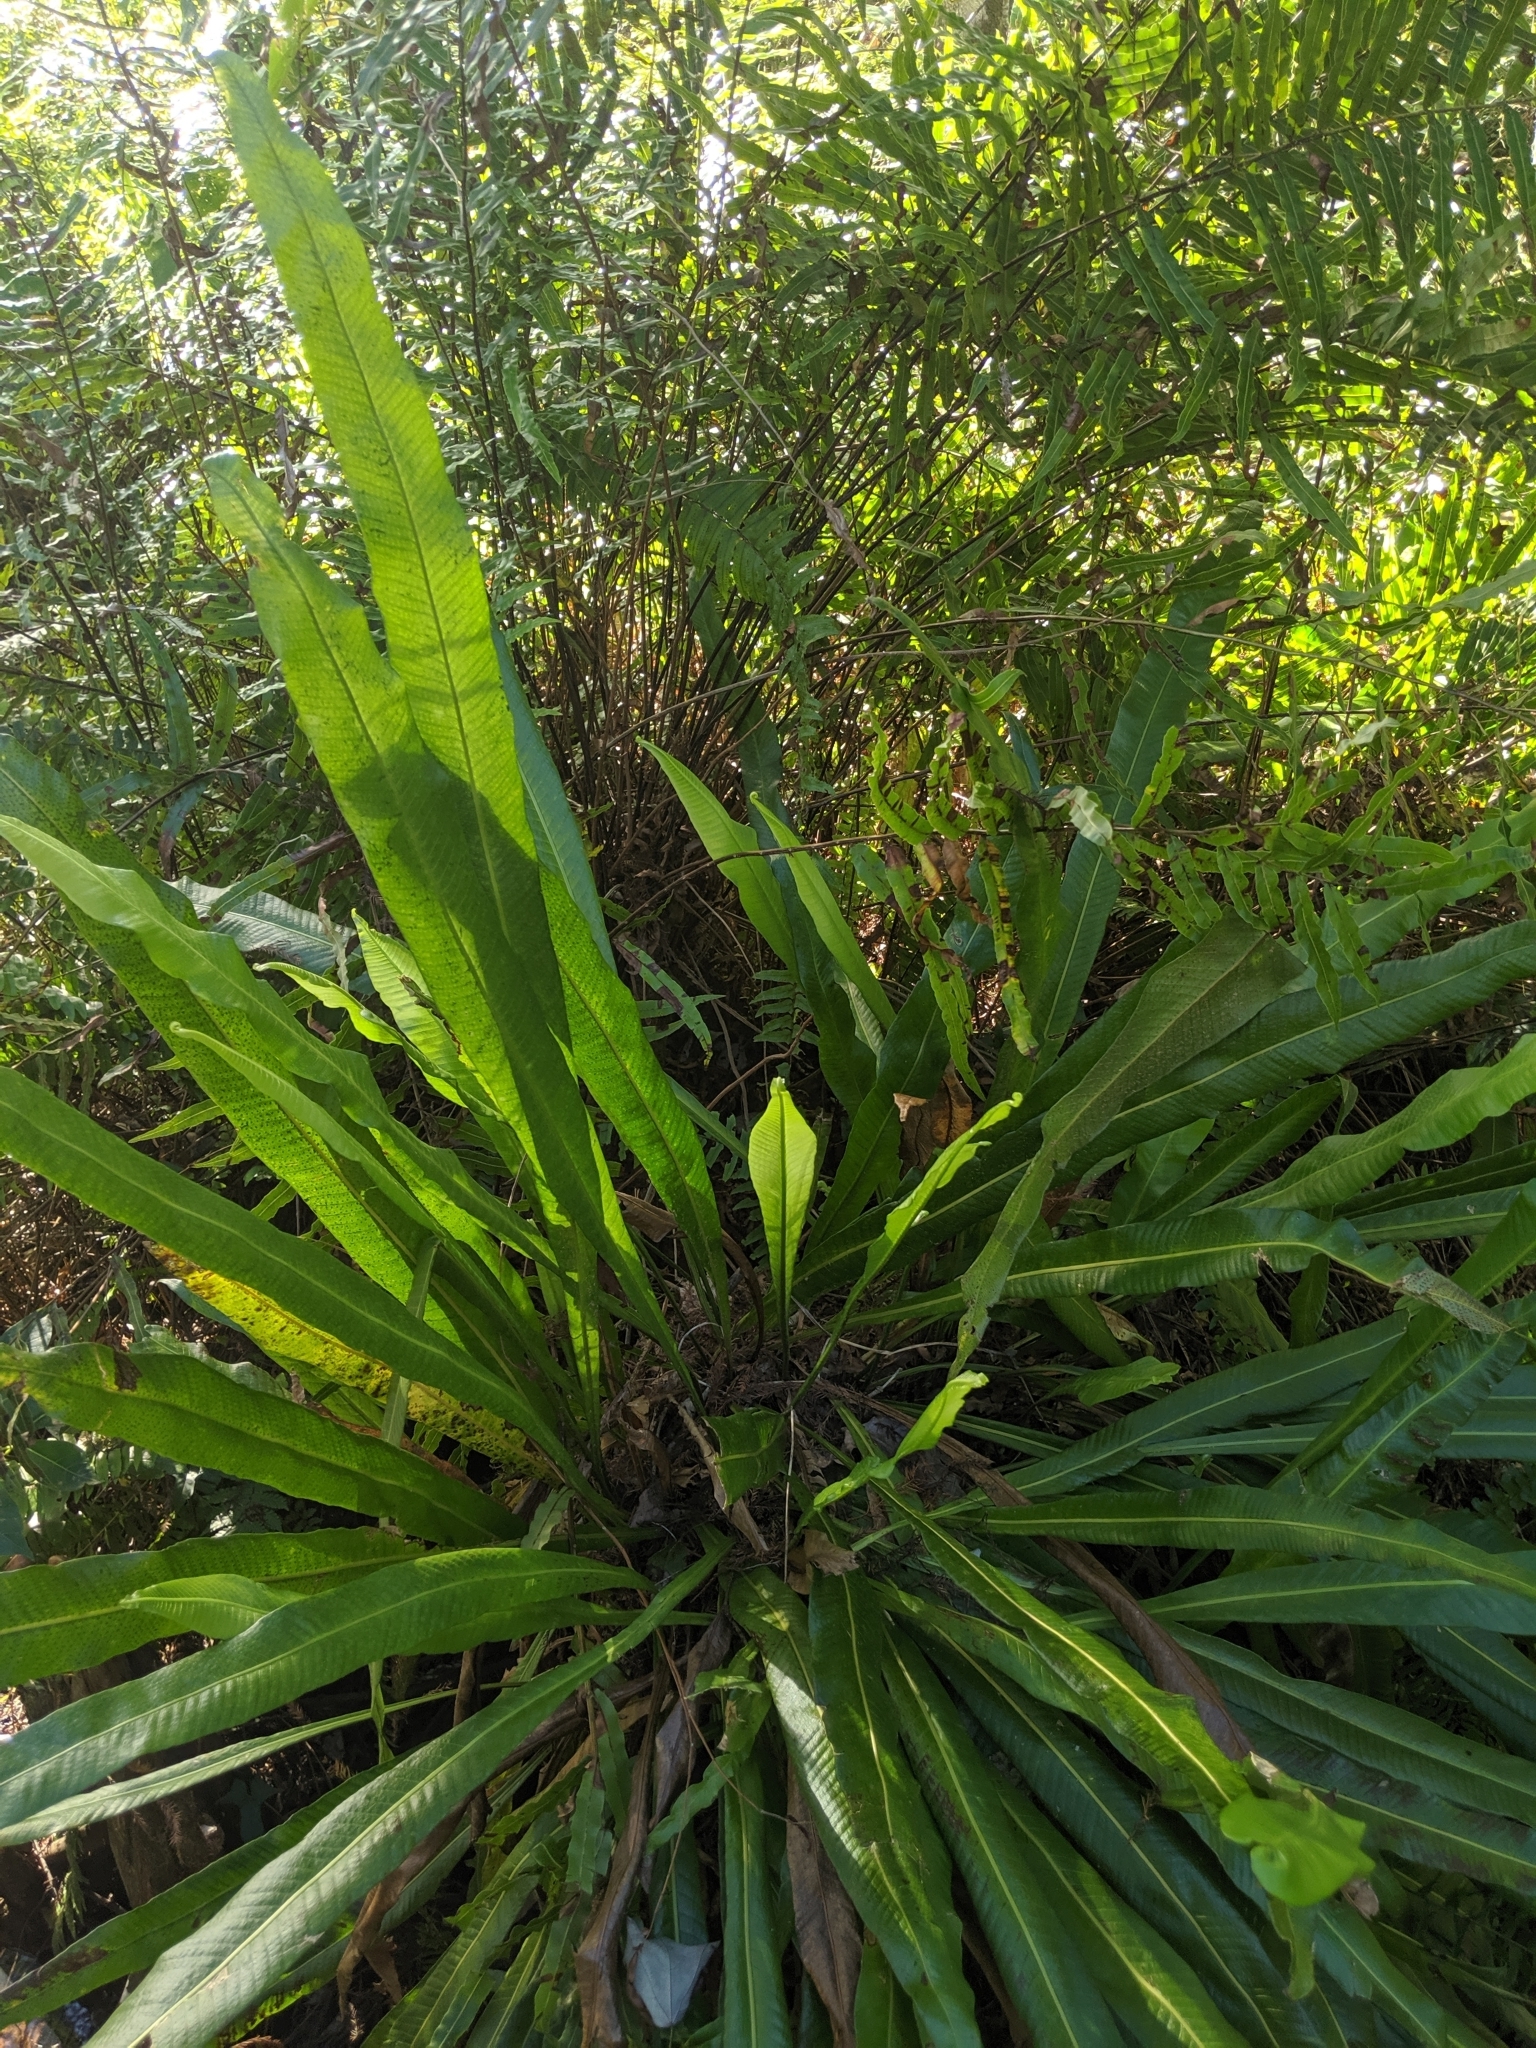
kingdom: Plantae
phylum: Tracheophyta
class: Polypodiopsida
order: Polypodiales
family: Polypodiaceae
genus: Campyloneurum
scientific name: Campyloneurum phyllitidis
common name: Cow-tongue fern
